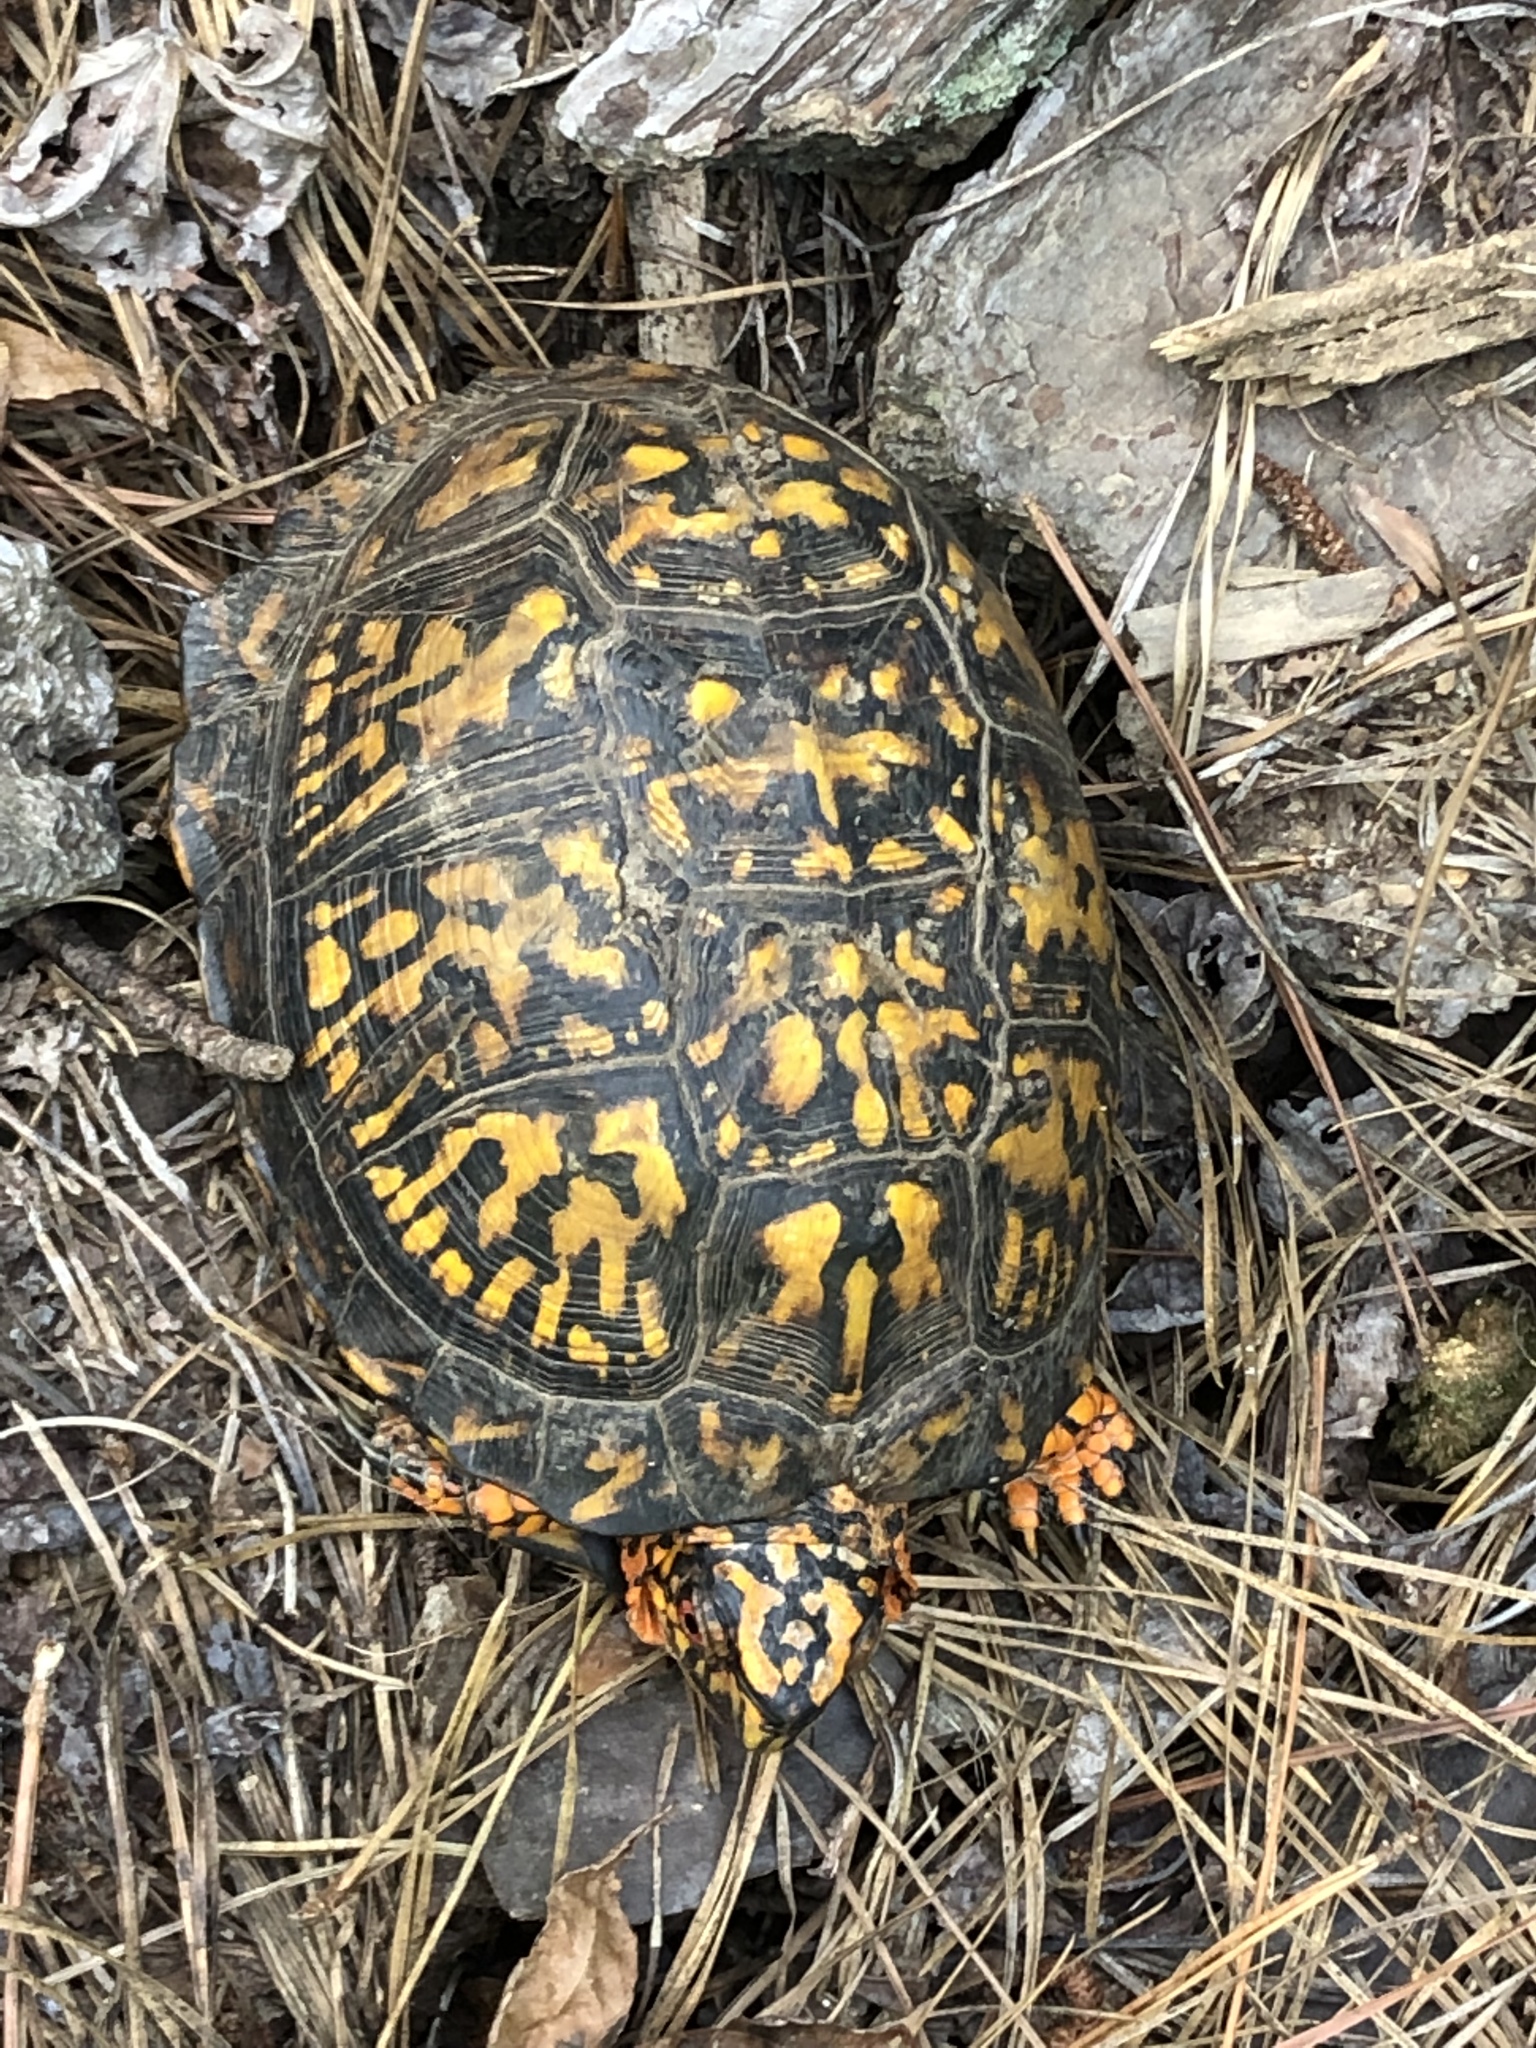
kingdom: Animalia
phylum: Chordata
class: Testudines
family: Emydidae
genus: Terrapene
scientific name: Terrapene carolina
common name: Common box turtle
